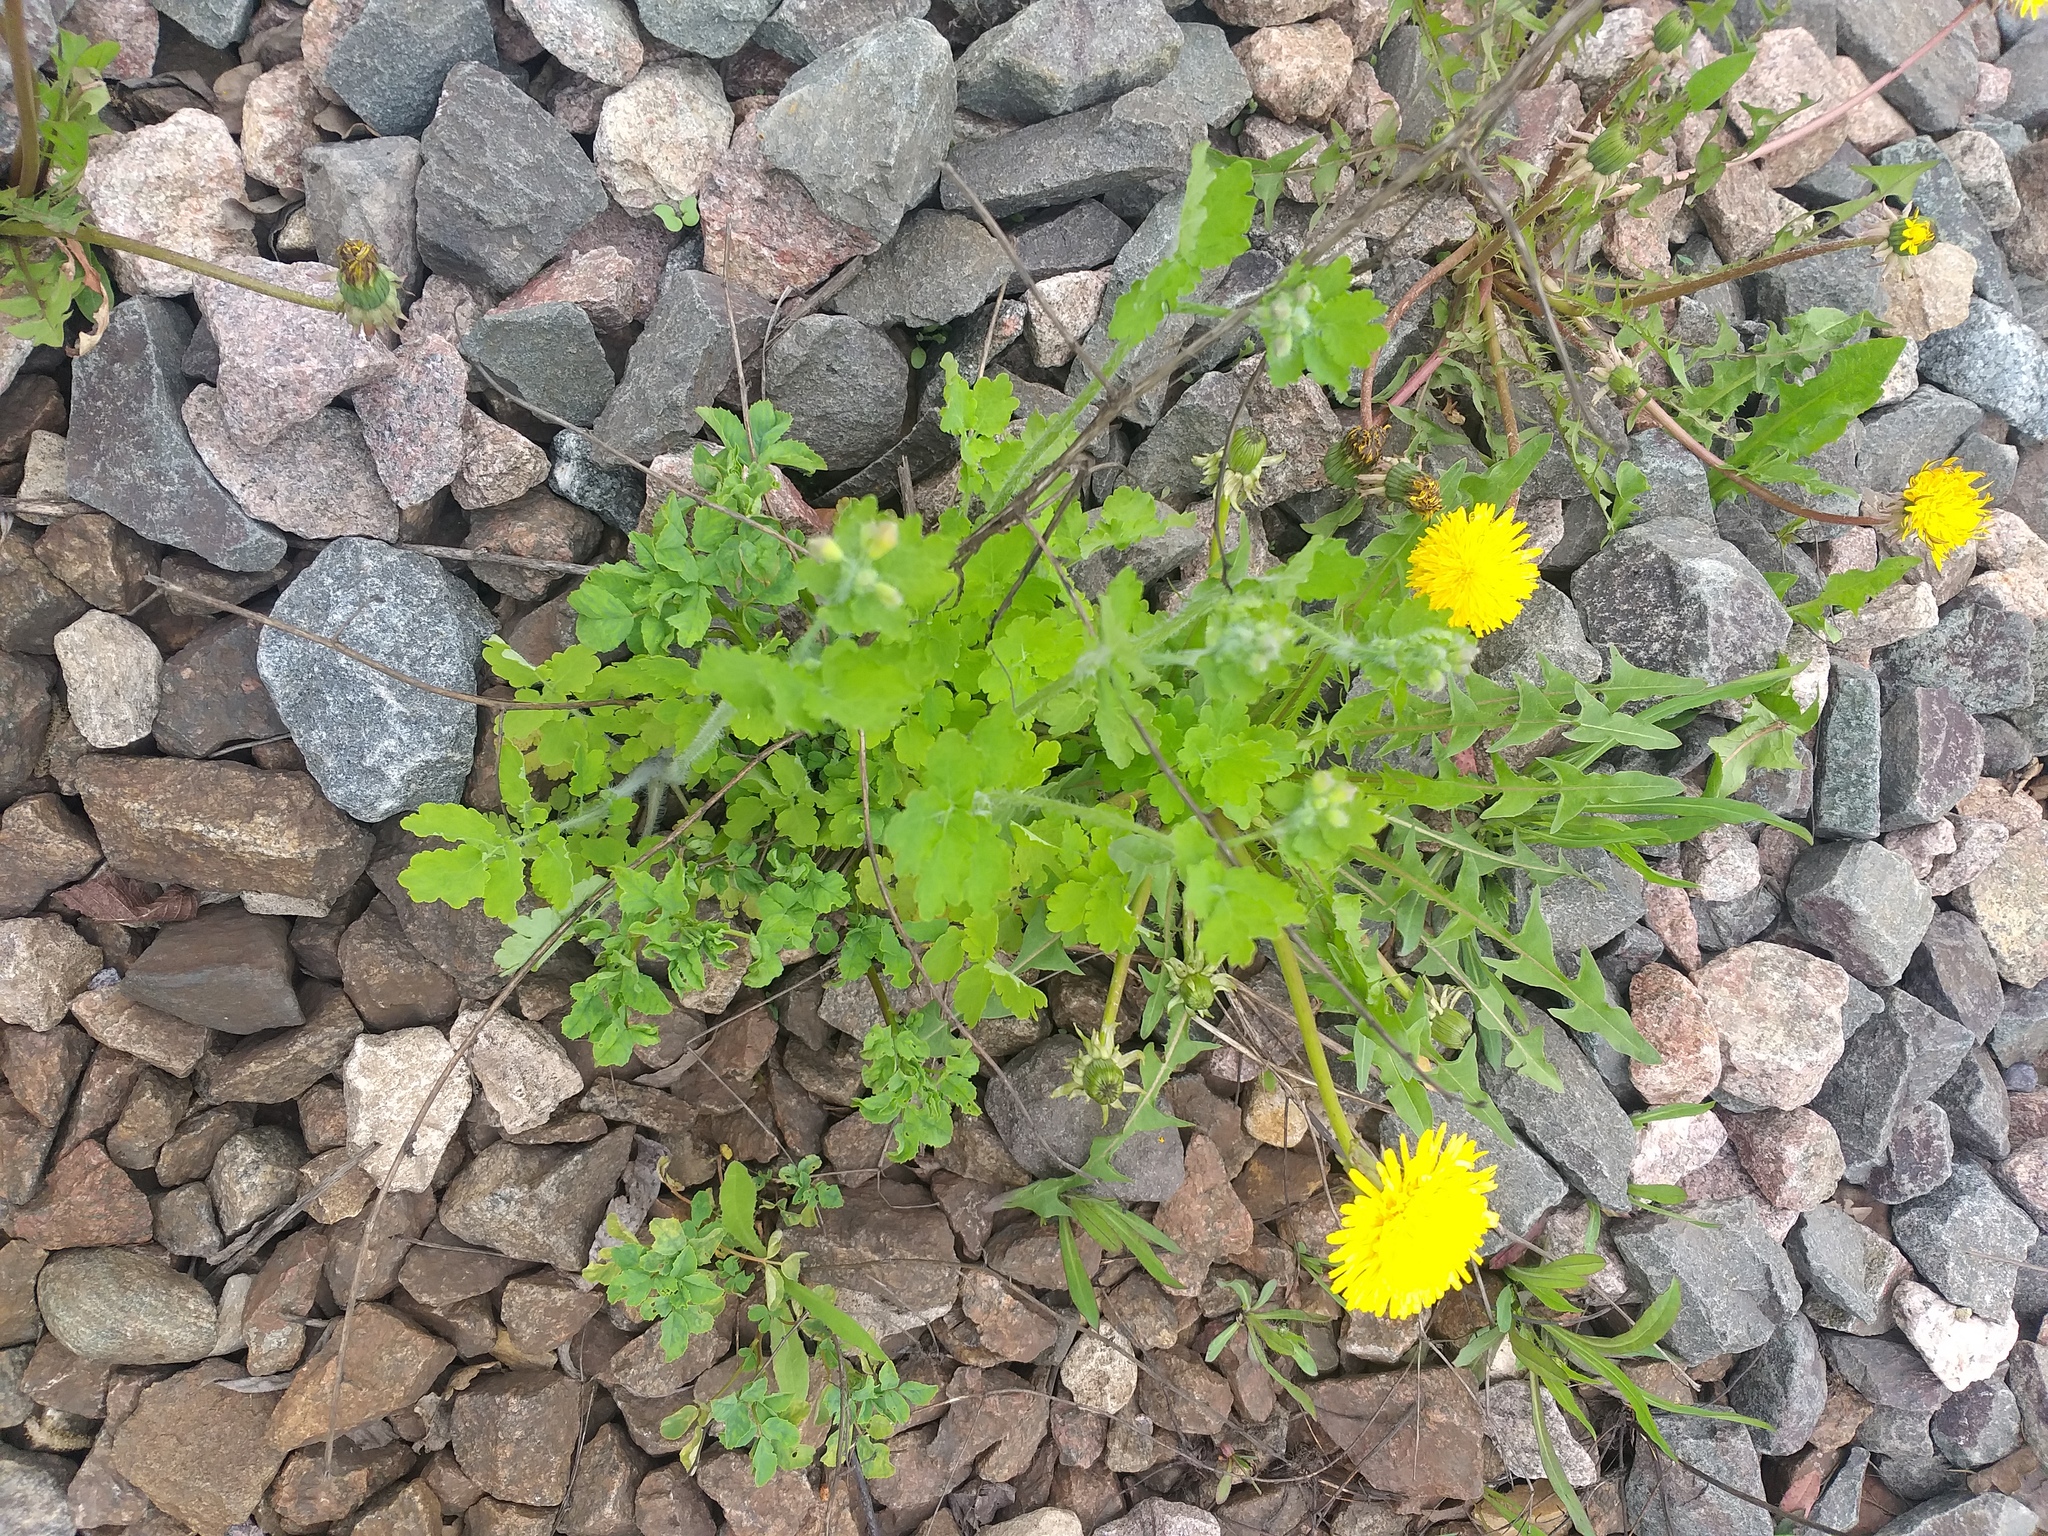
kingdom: Plantae
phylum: Tracheophyta
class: Magnoliopsida
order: Ranunculales
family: Papaveraceae
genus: Chelidonium
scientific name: Chelidonium majus
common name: Greater celandine
